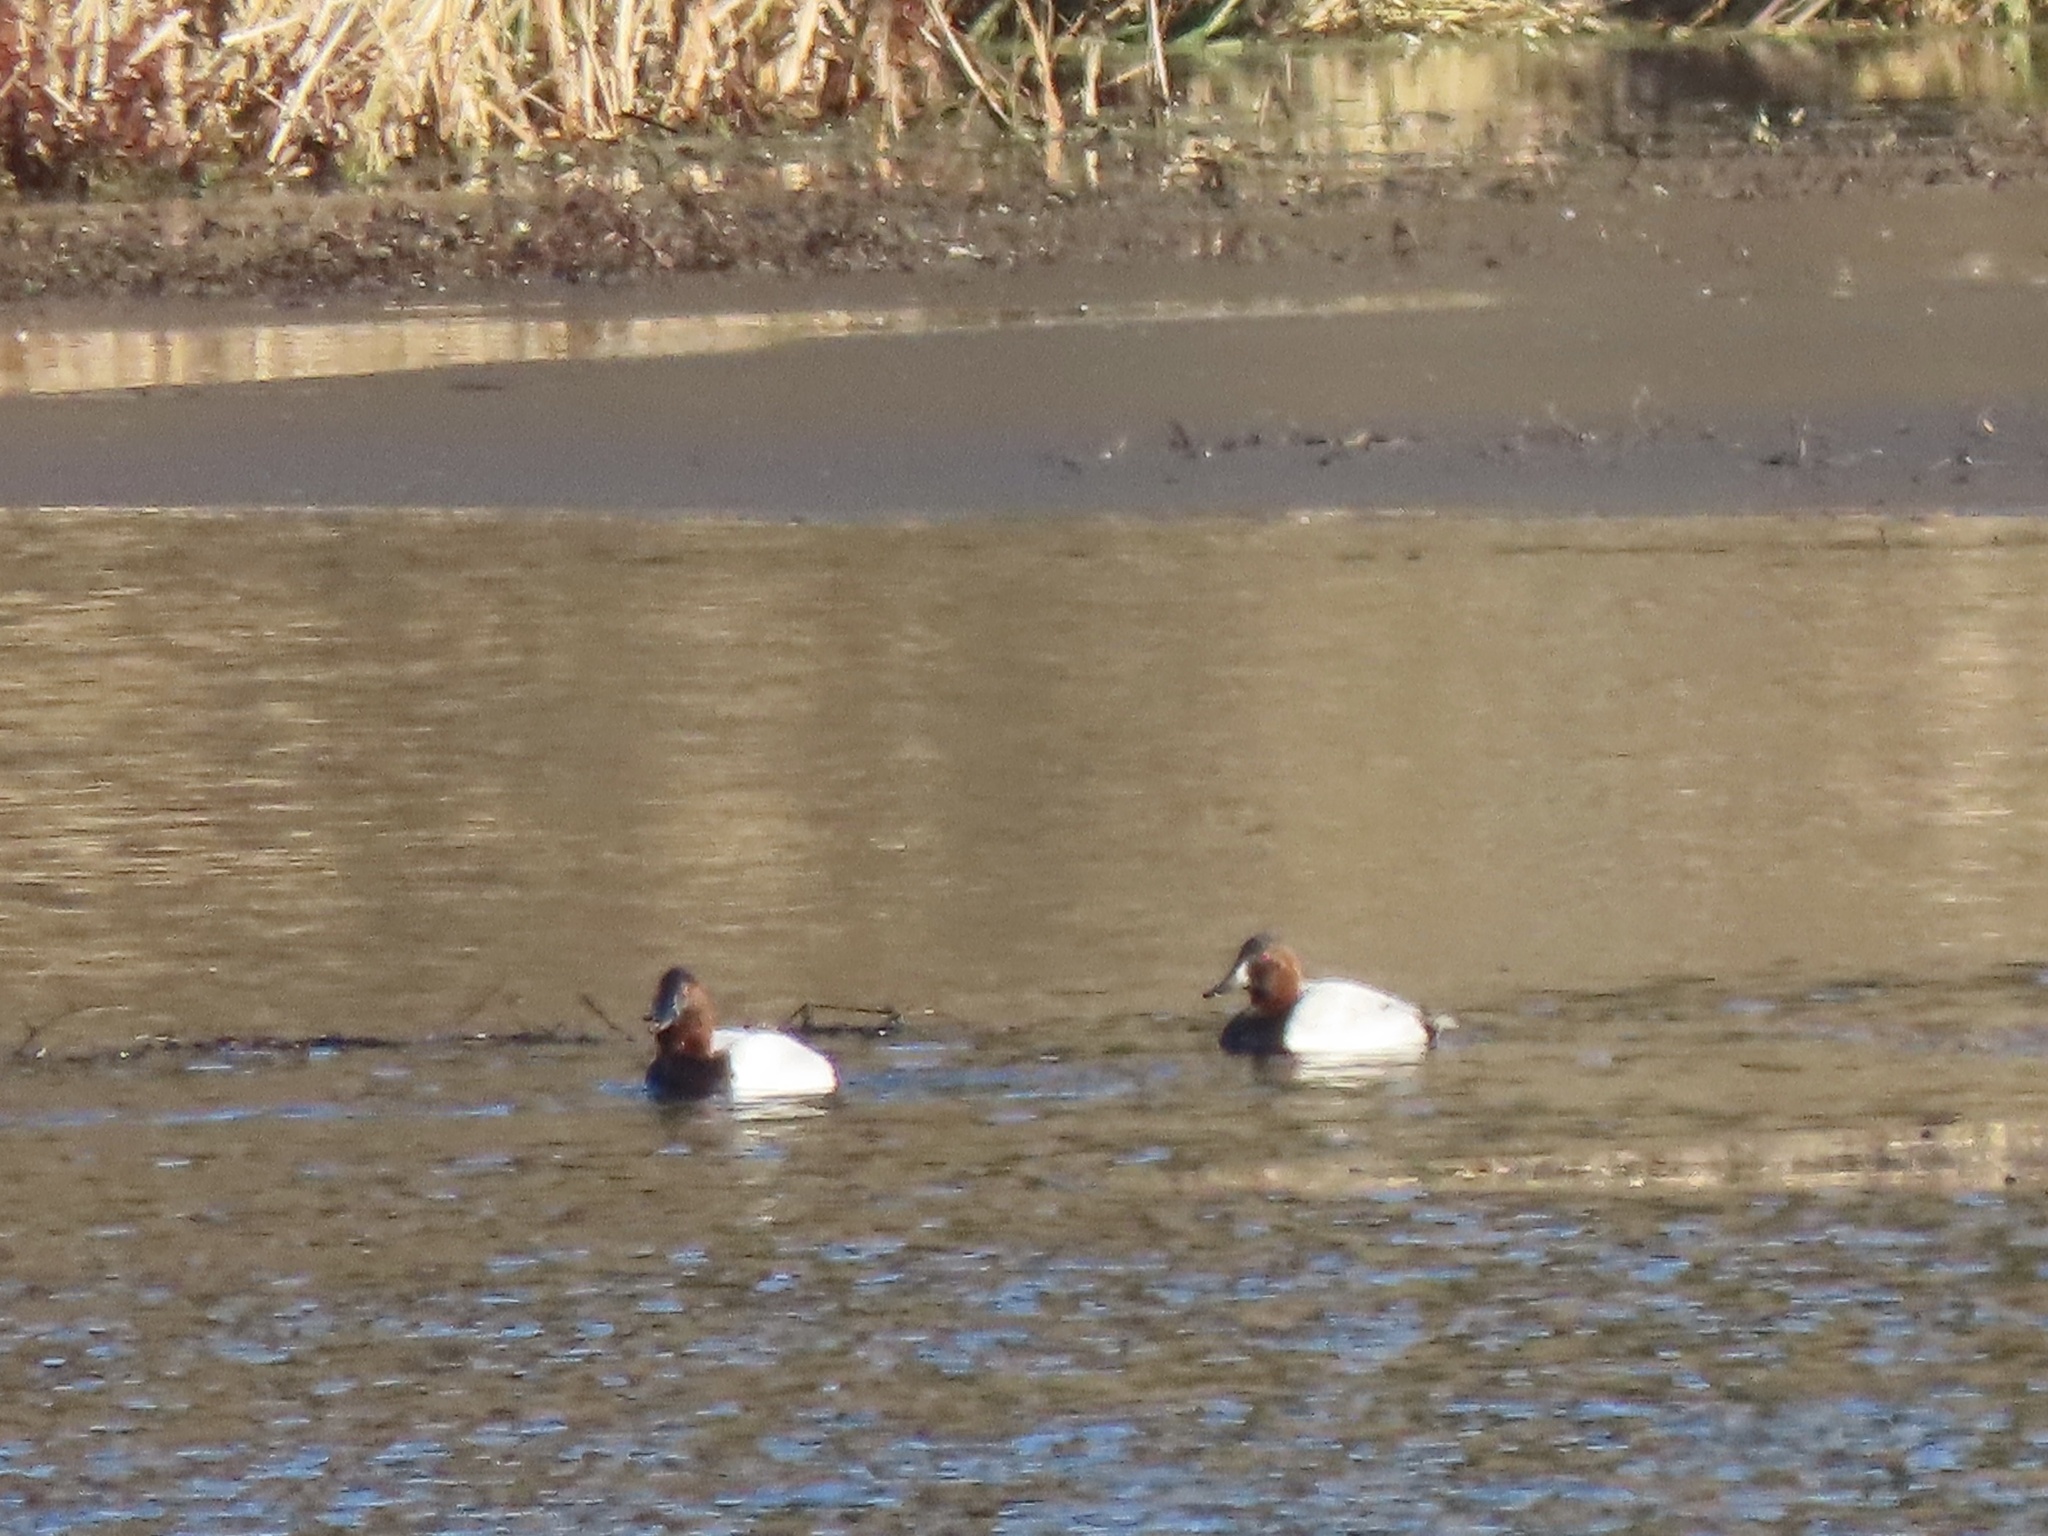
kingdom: Animalia
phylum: Chordata
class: Aves
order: Anseriformes
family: Anatidae
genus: Aythya
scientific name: Aythya valisineria
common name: Canvasback
